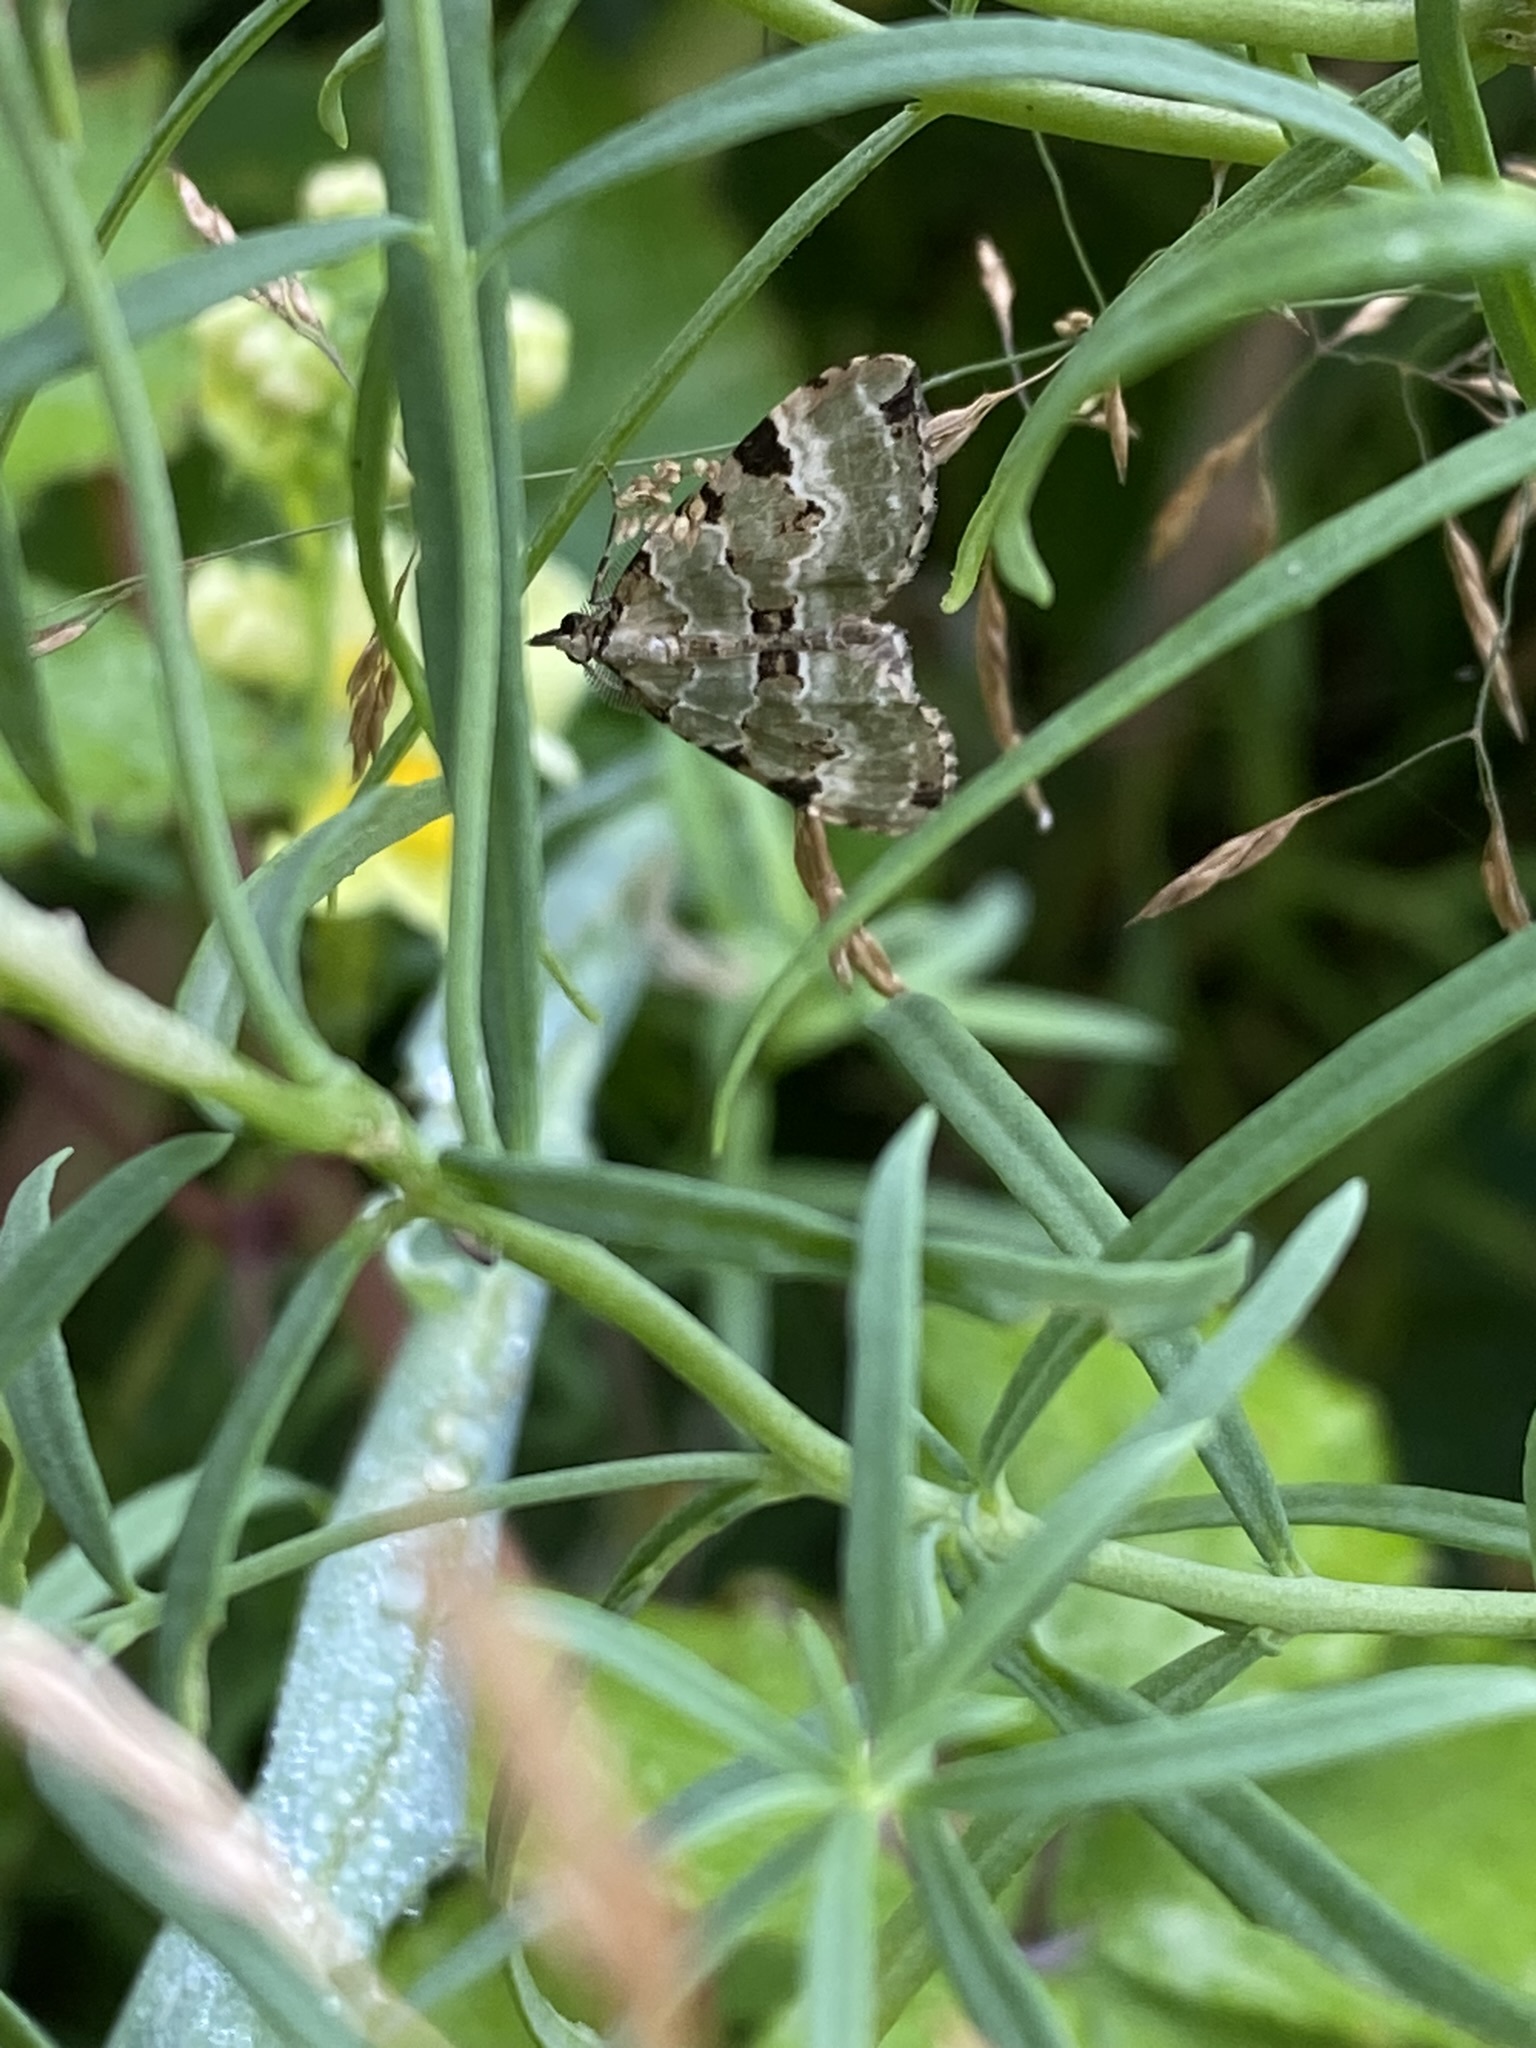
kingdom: Animalia
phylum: Arthropoda
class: Insecta
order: Lepidoptera
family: Geometridae
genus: Colostygia
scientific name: Colostygia pectinataria
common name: Green carpet
